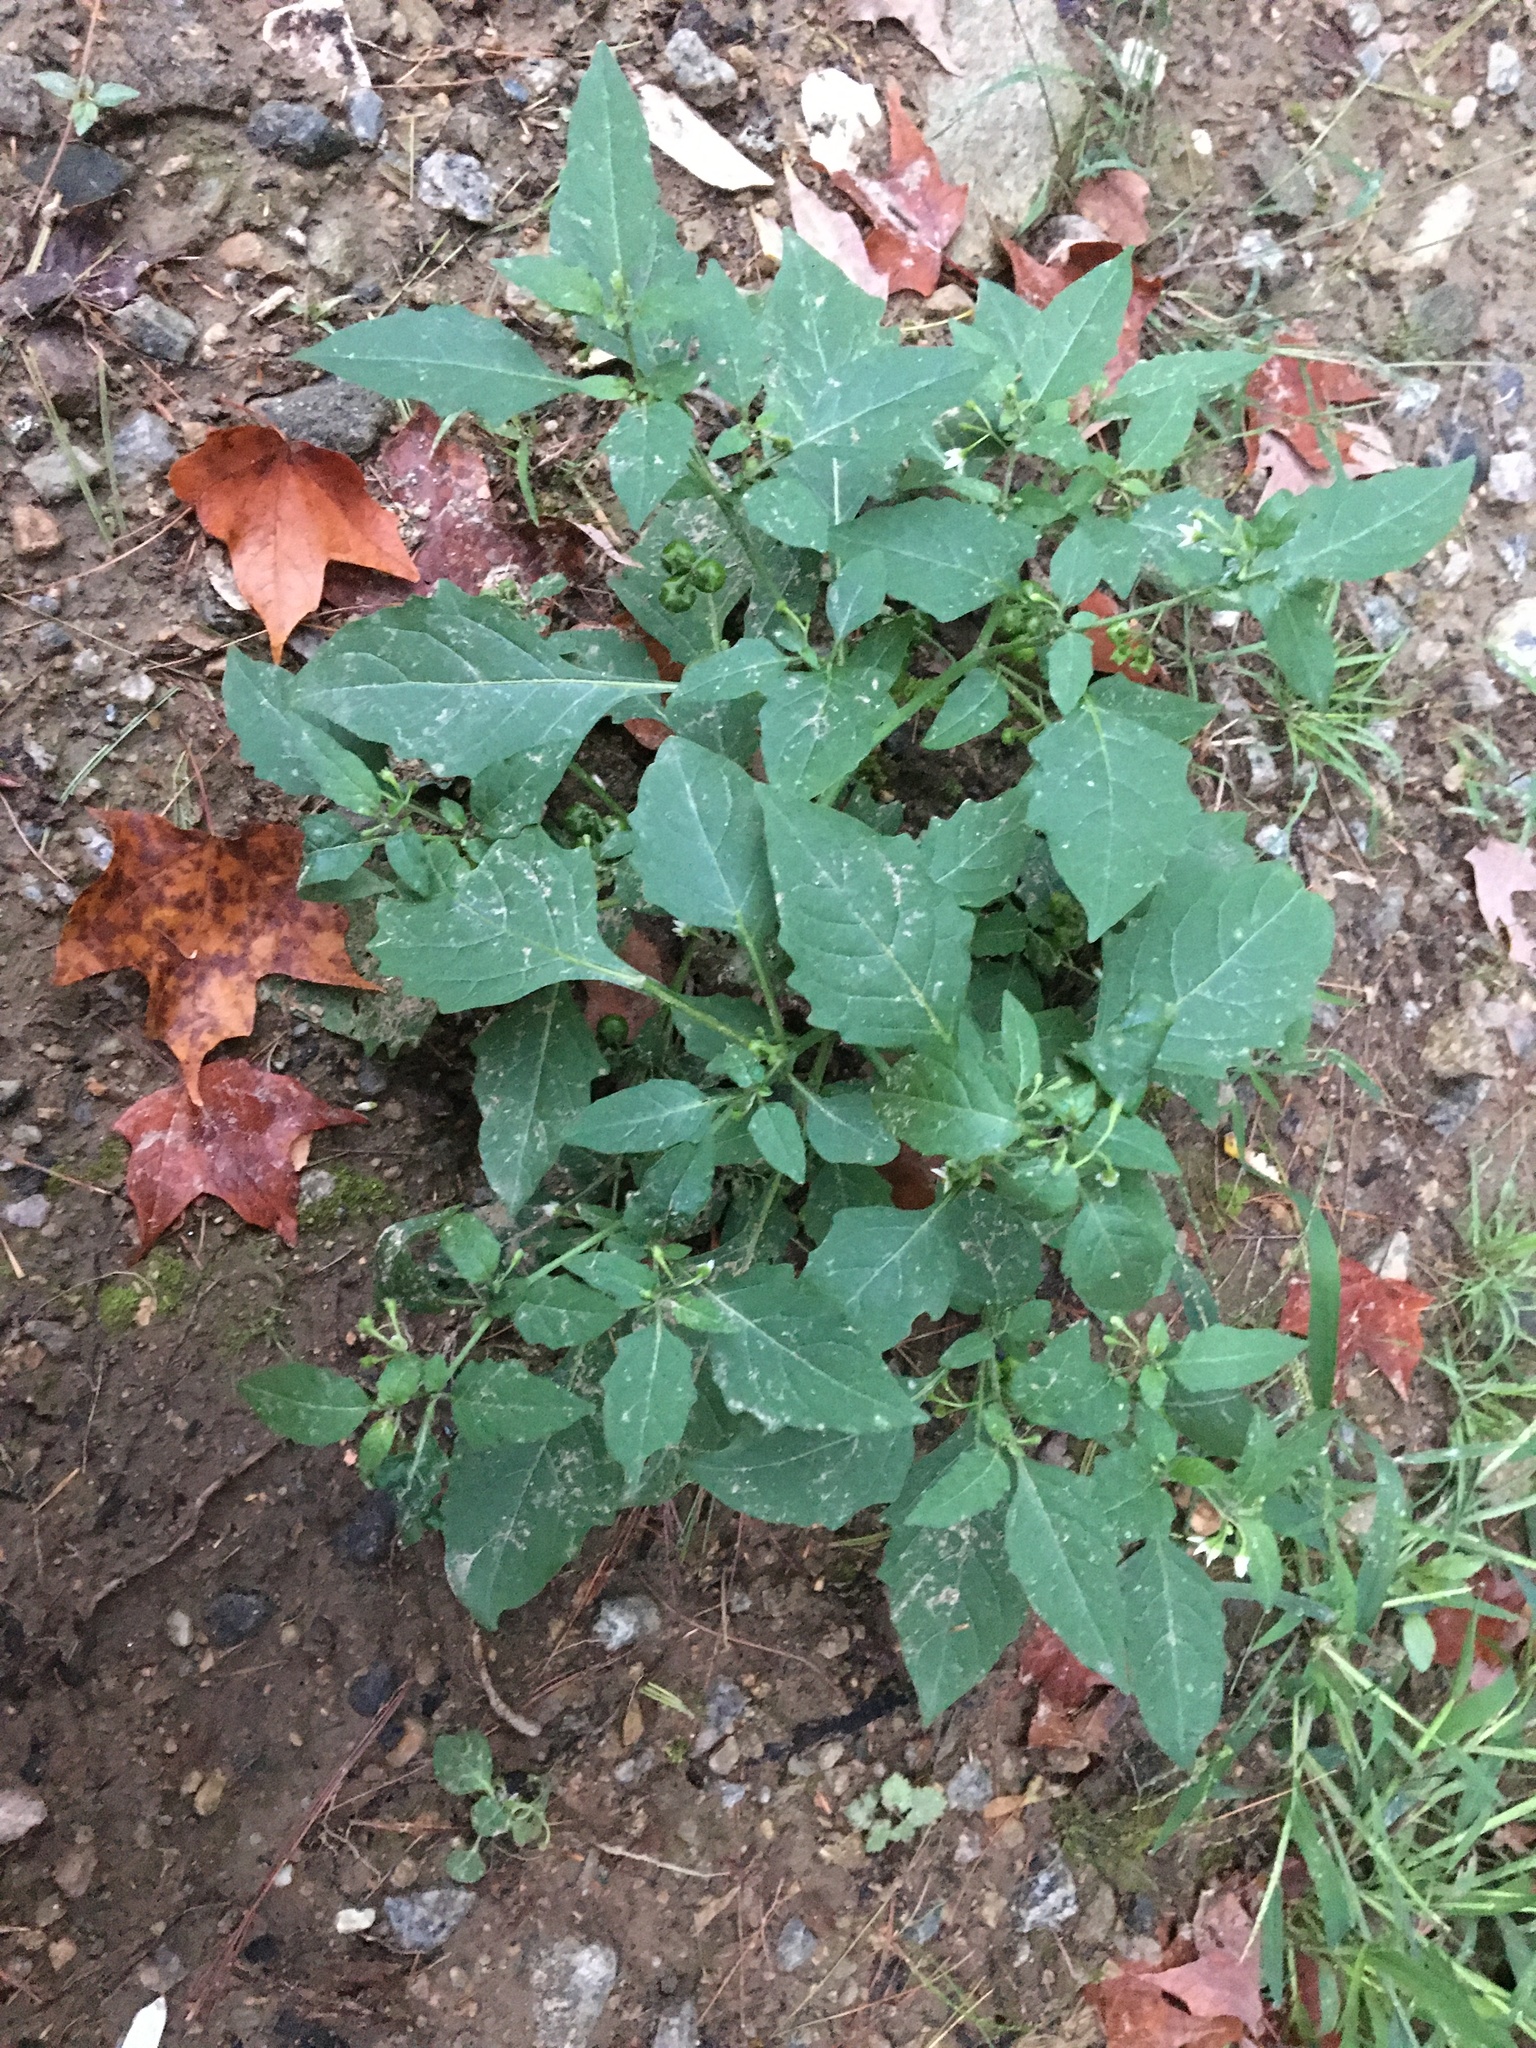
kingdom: Plantae
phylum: Tracheophyta
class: Magnoliopsida
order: Solanales
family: Solanaceae
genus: Solanum
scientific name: Solanum emulans
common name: Eastern black nightshade
